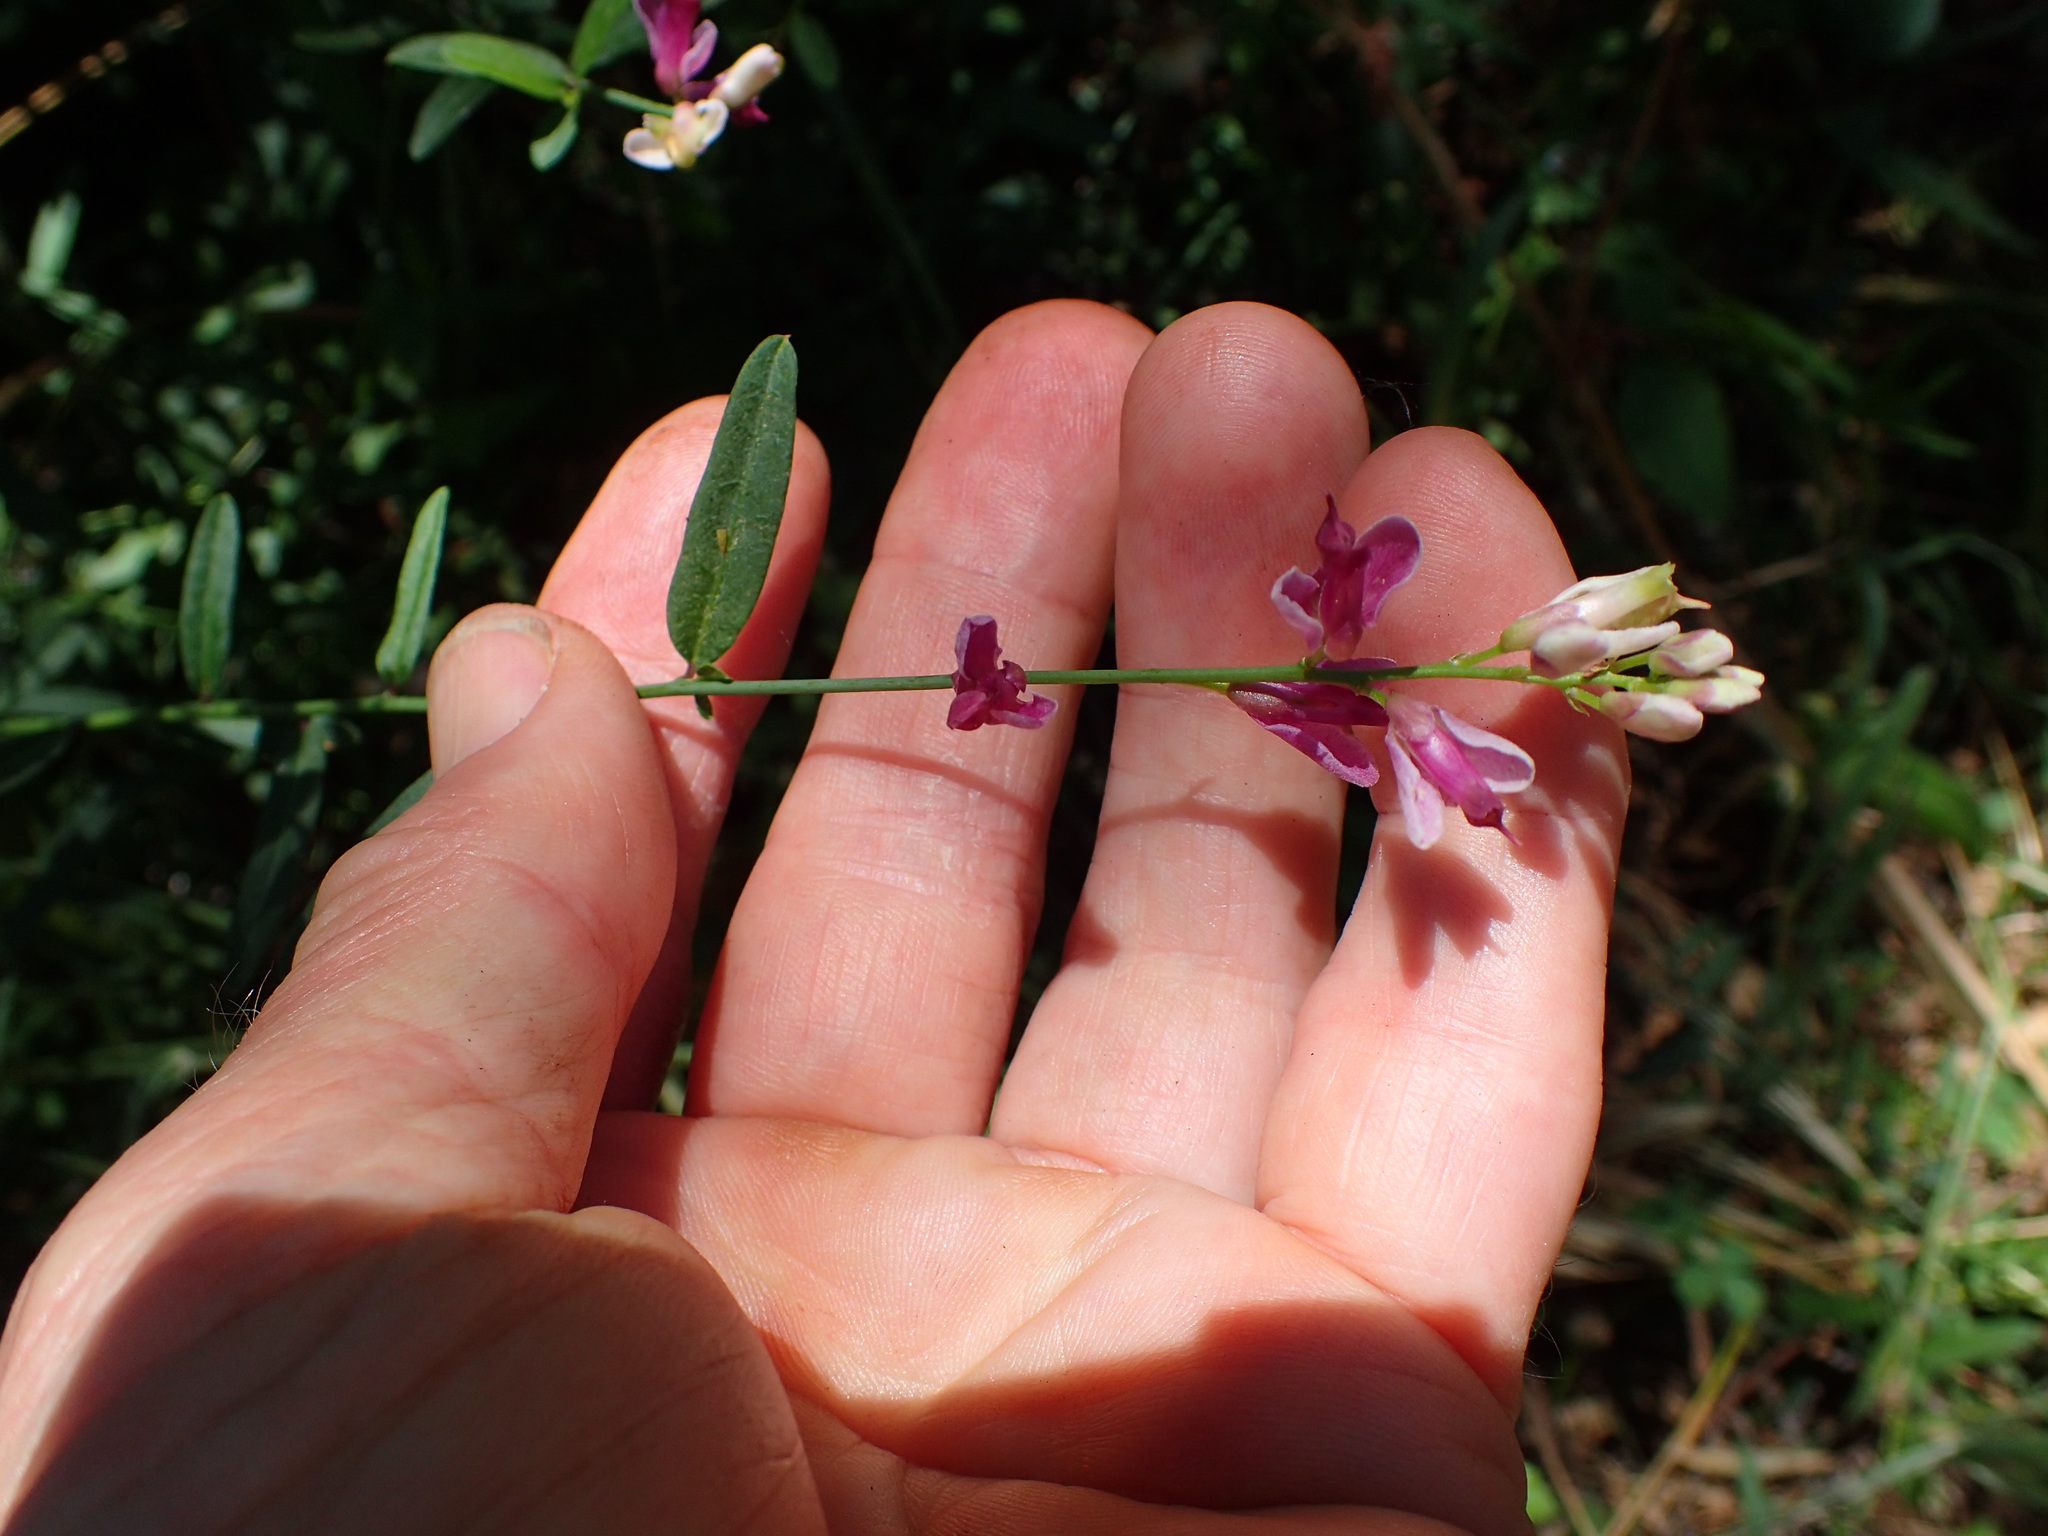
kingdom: Plantae
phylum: Tracheophyta
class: Magnoliopsida
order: Fabales
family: Polygalaceae
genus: Rhinotropis
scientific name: Rhinotropis cornuta
